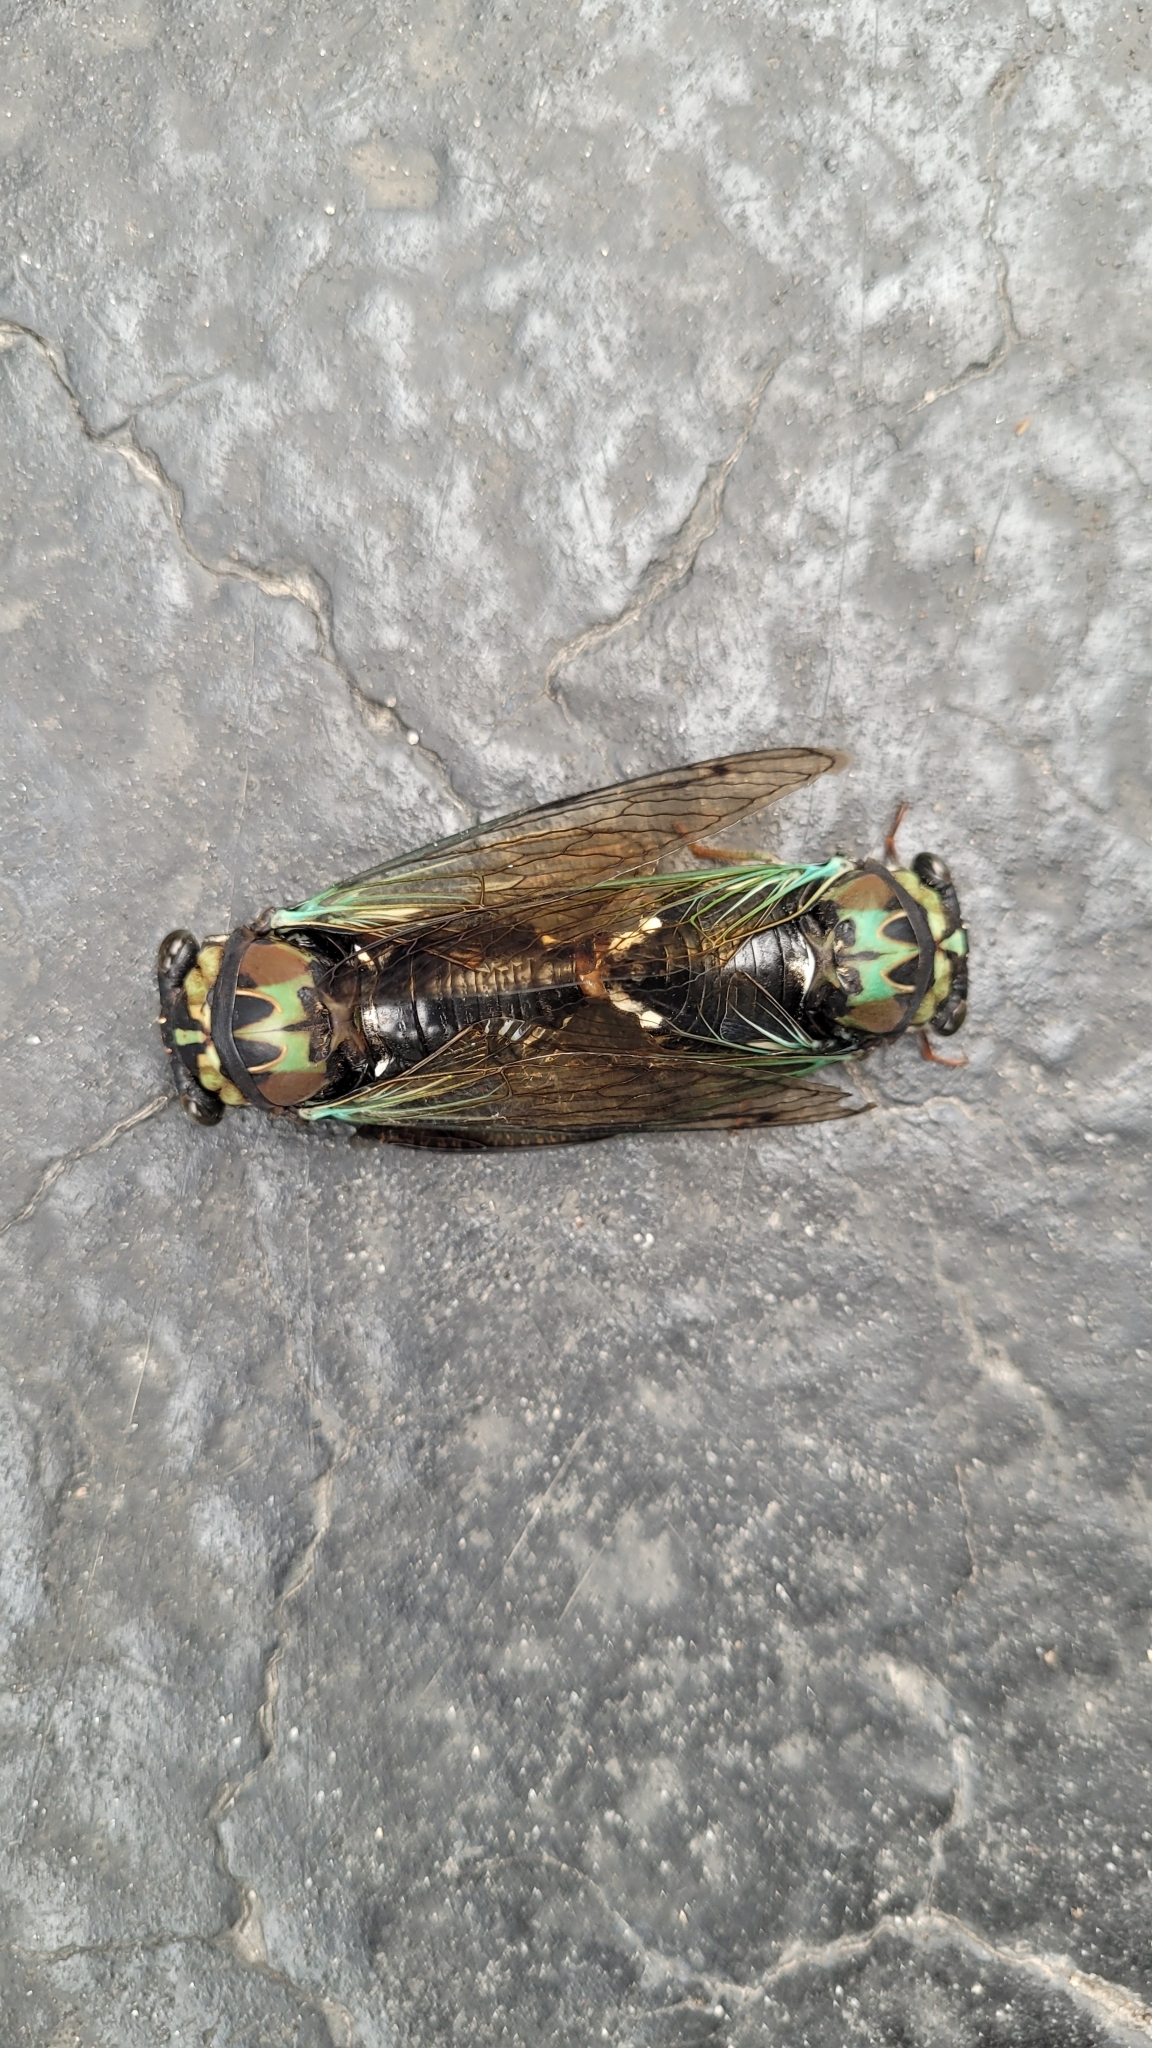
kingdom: Animalia
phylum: Arthropoda
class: Insecta
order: Hemiptera
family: Cicadidae
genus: Neotibicen
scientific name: Neotibicen lyricen
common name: Lyric cicada
